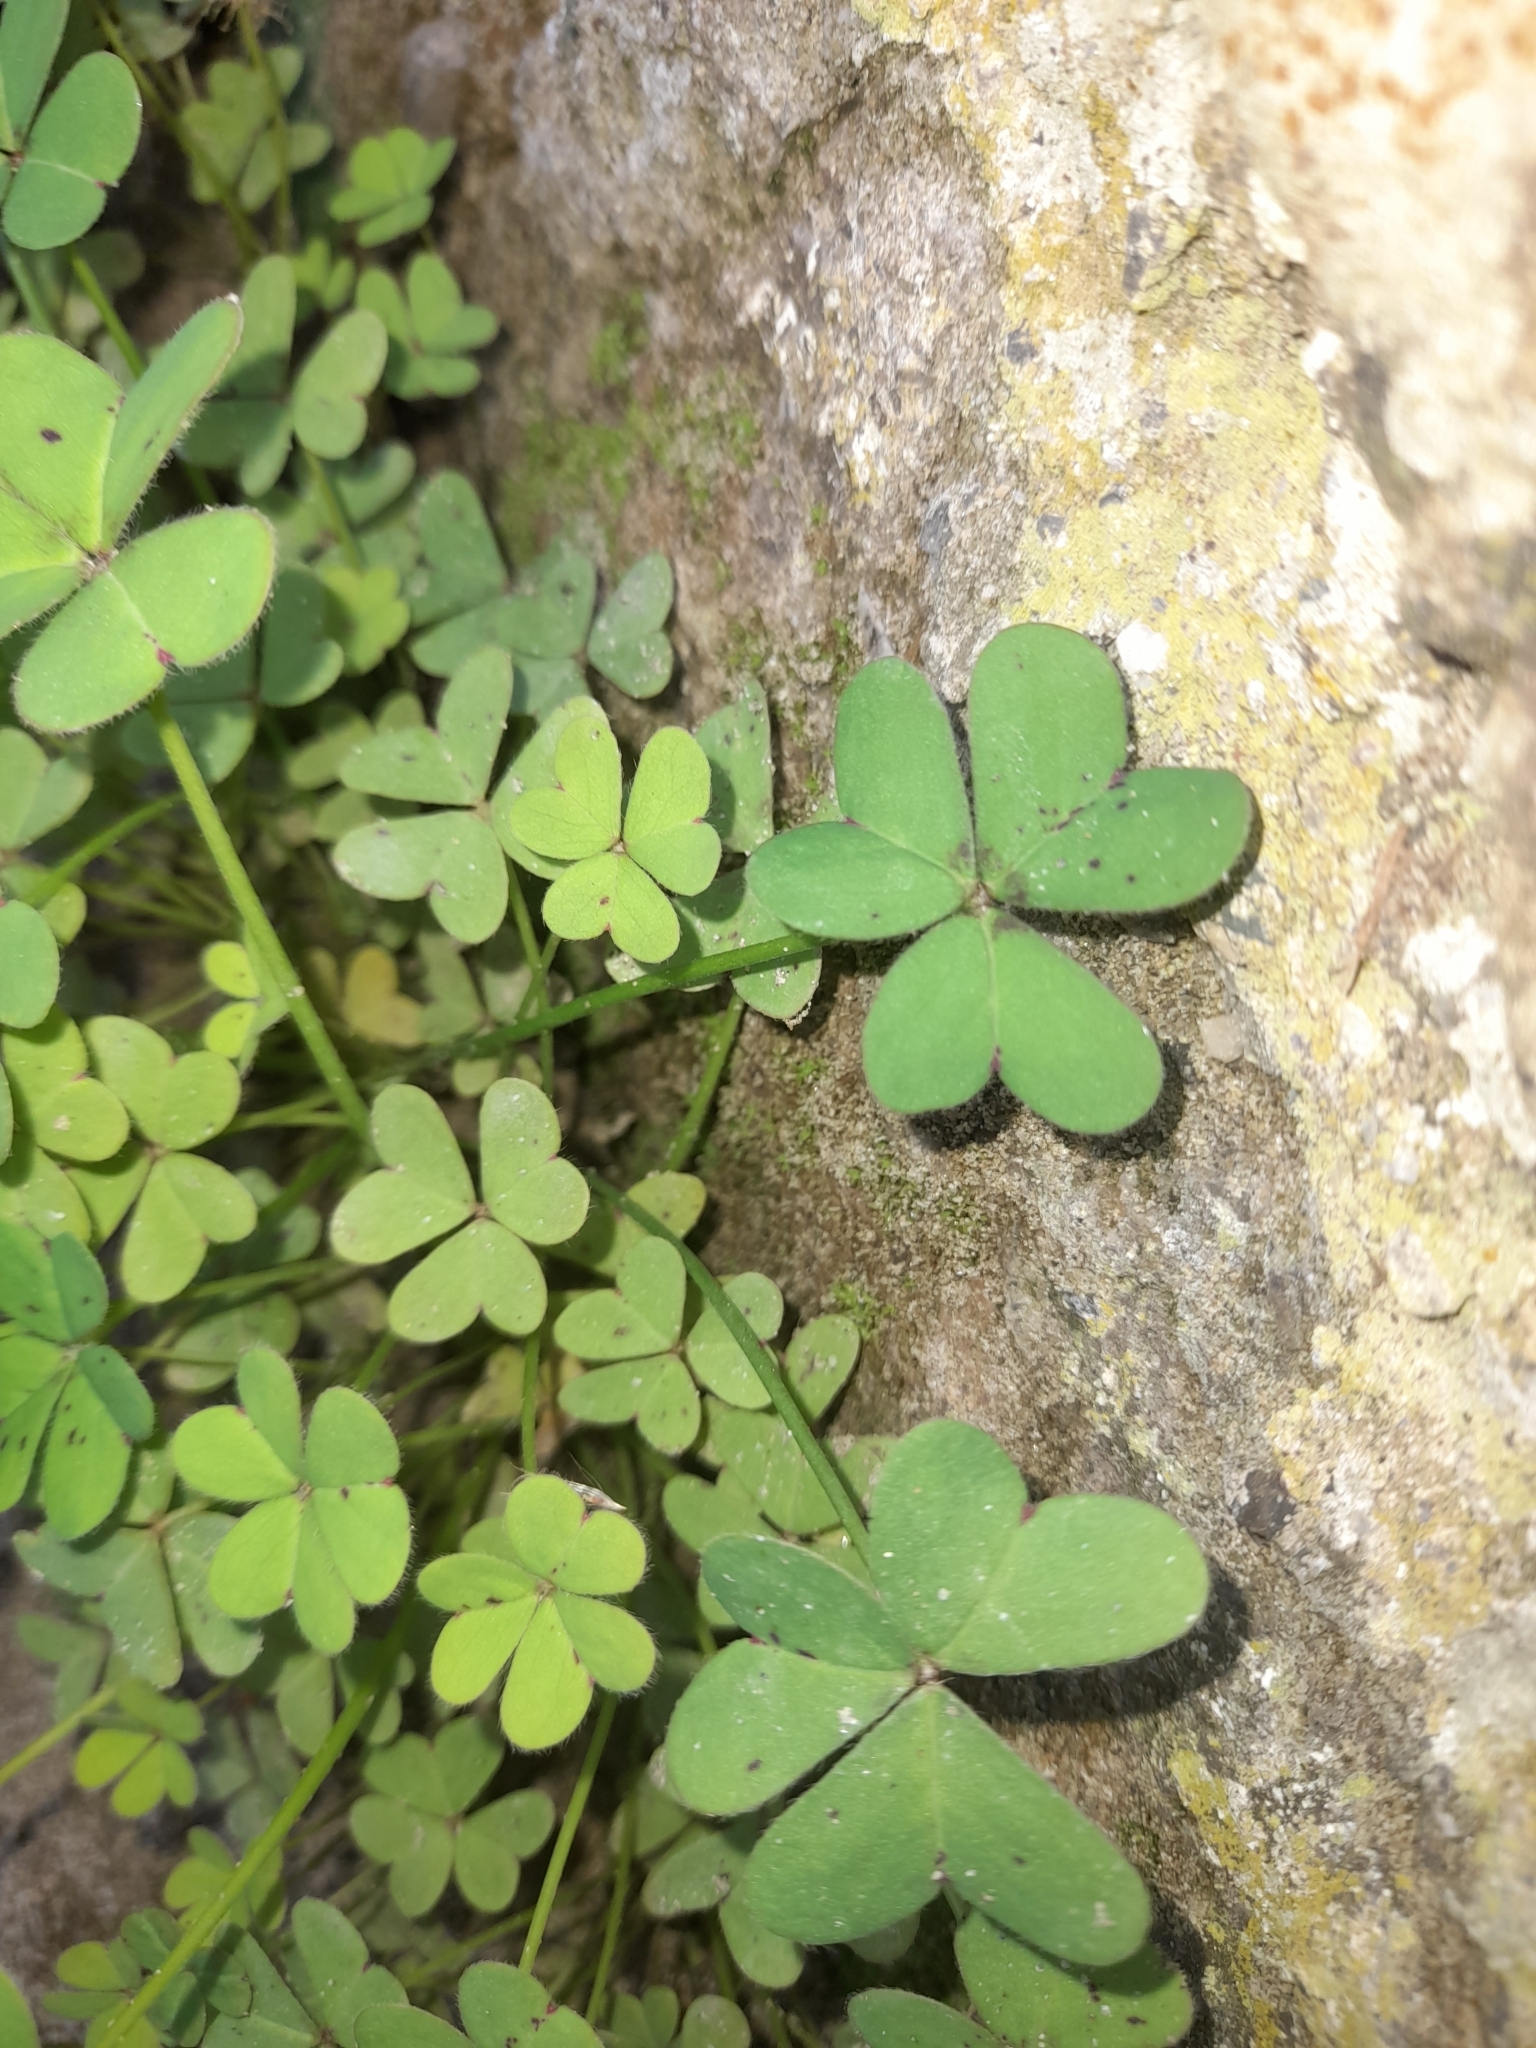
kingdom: Plantae
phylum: Tracheophyta
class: Magnoliopsida
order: Oxalidales
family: Oxalidaceae
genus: Oxalis
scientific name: Oxalis pes-caprae
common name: Bermuda-buttercup
